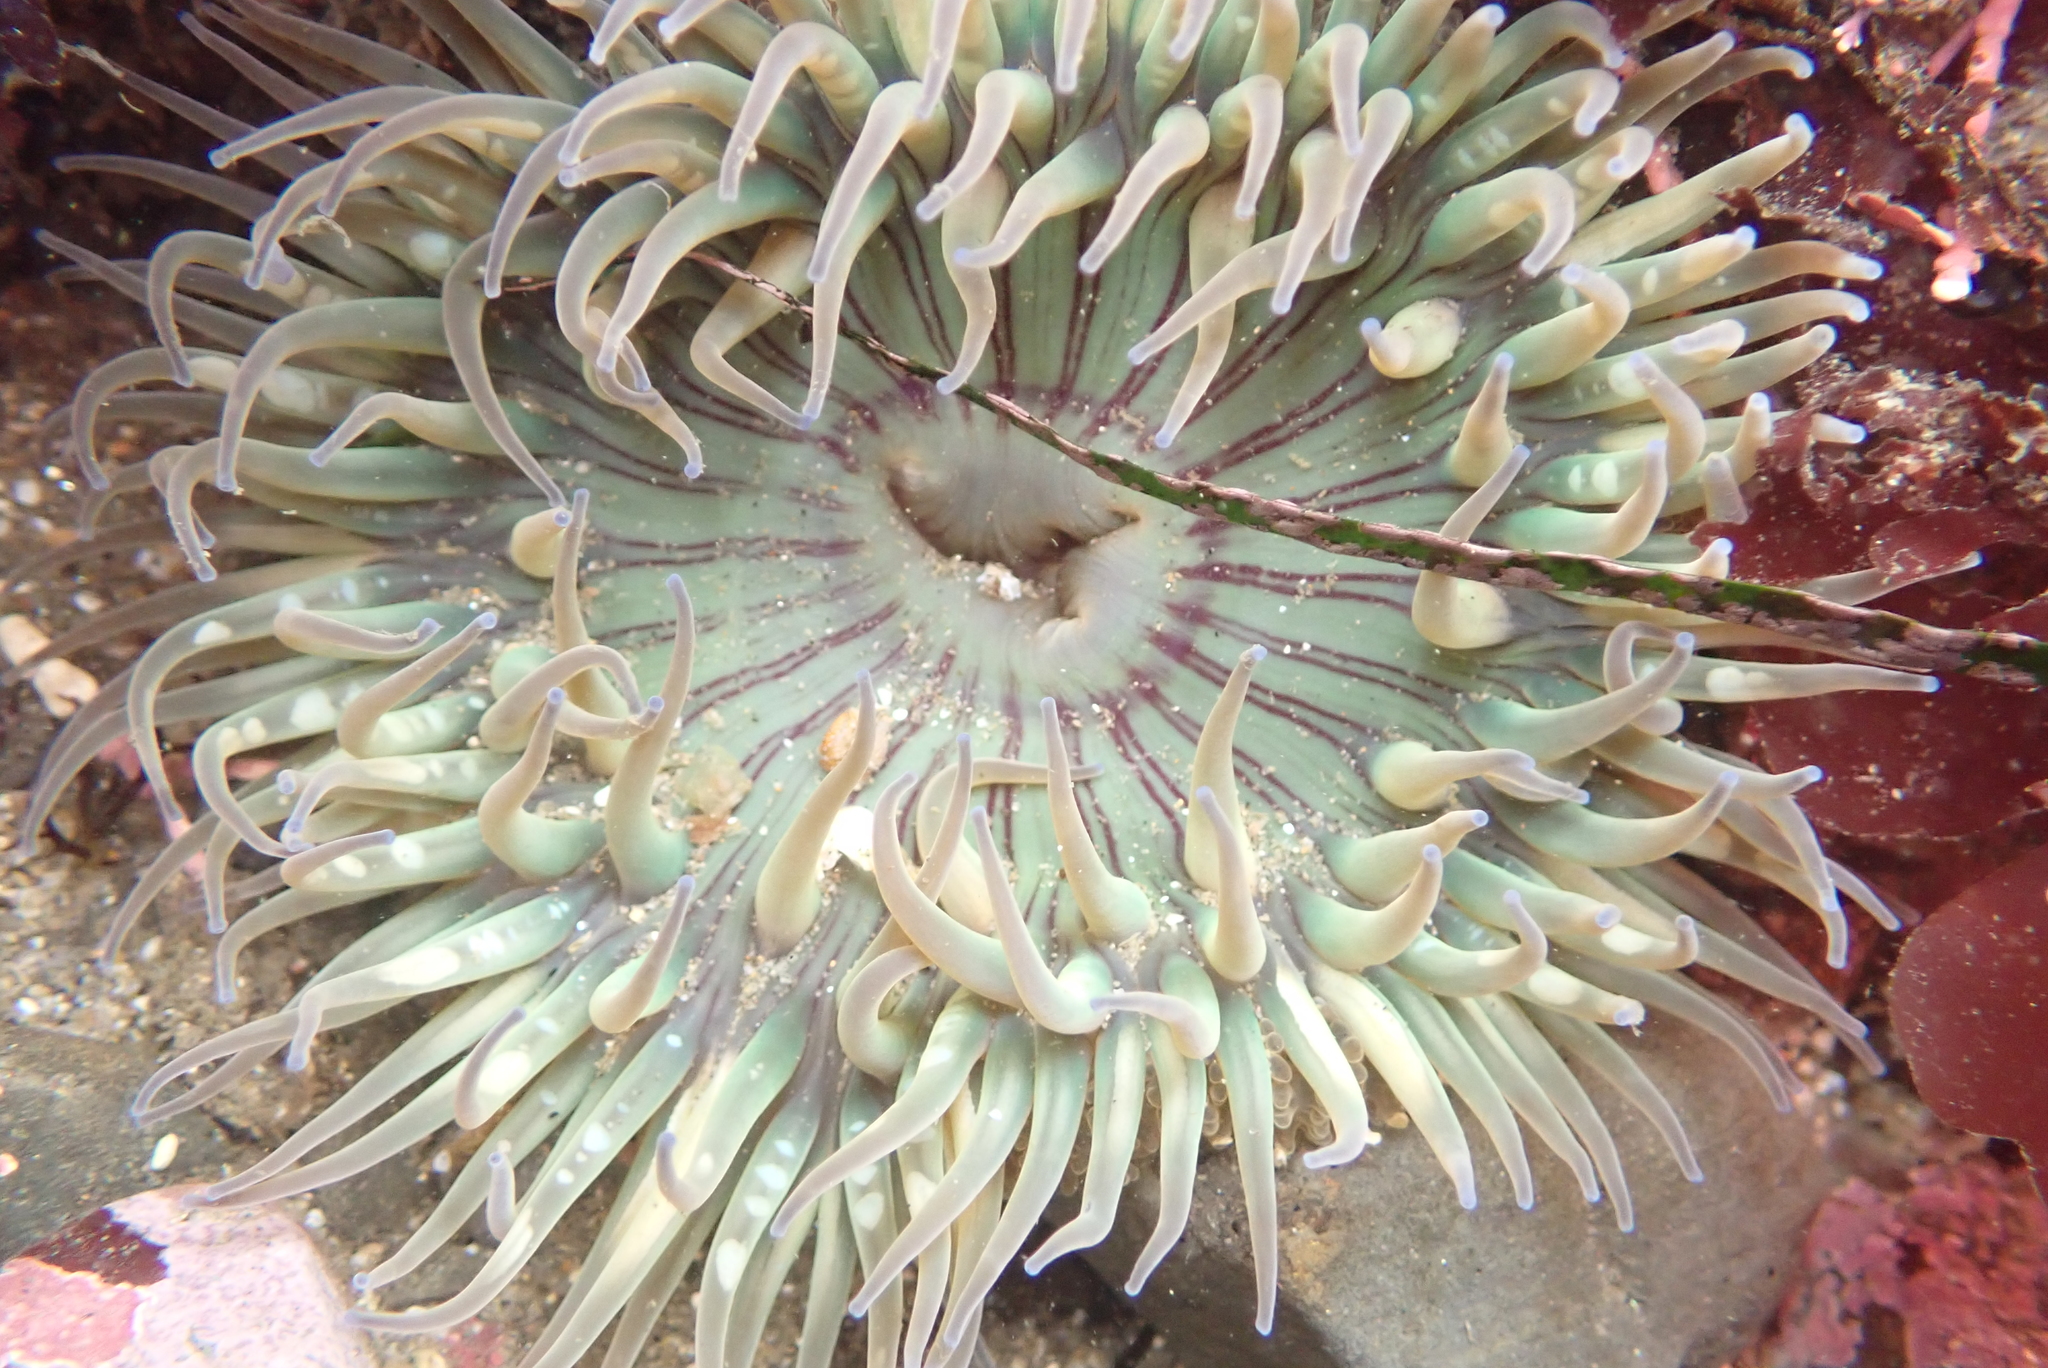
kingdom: Animalia
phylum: Cnidaria
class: Anthozoa
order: Actiniaria
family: Actiniidae
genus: Anthopleura
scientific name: Anthopleura sola
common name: Sun anemone
